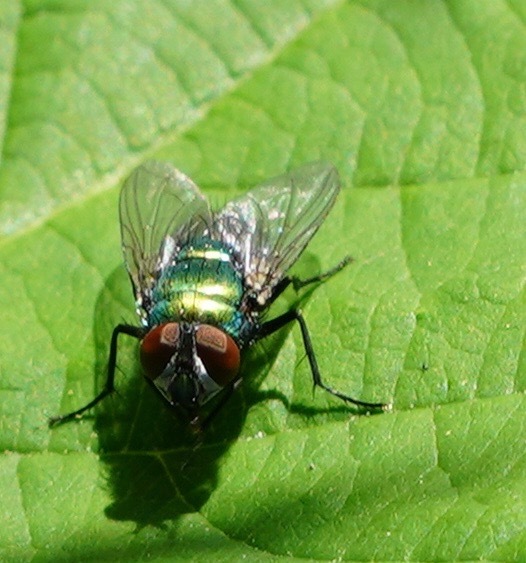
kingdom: Animalia
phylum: Arthropoda
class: Insecta
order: Diptera
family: Calliphoridae
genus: Lucilia
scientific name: Lucilia sericata
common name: Blow fly
